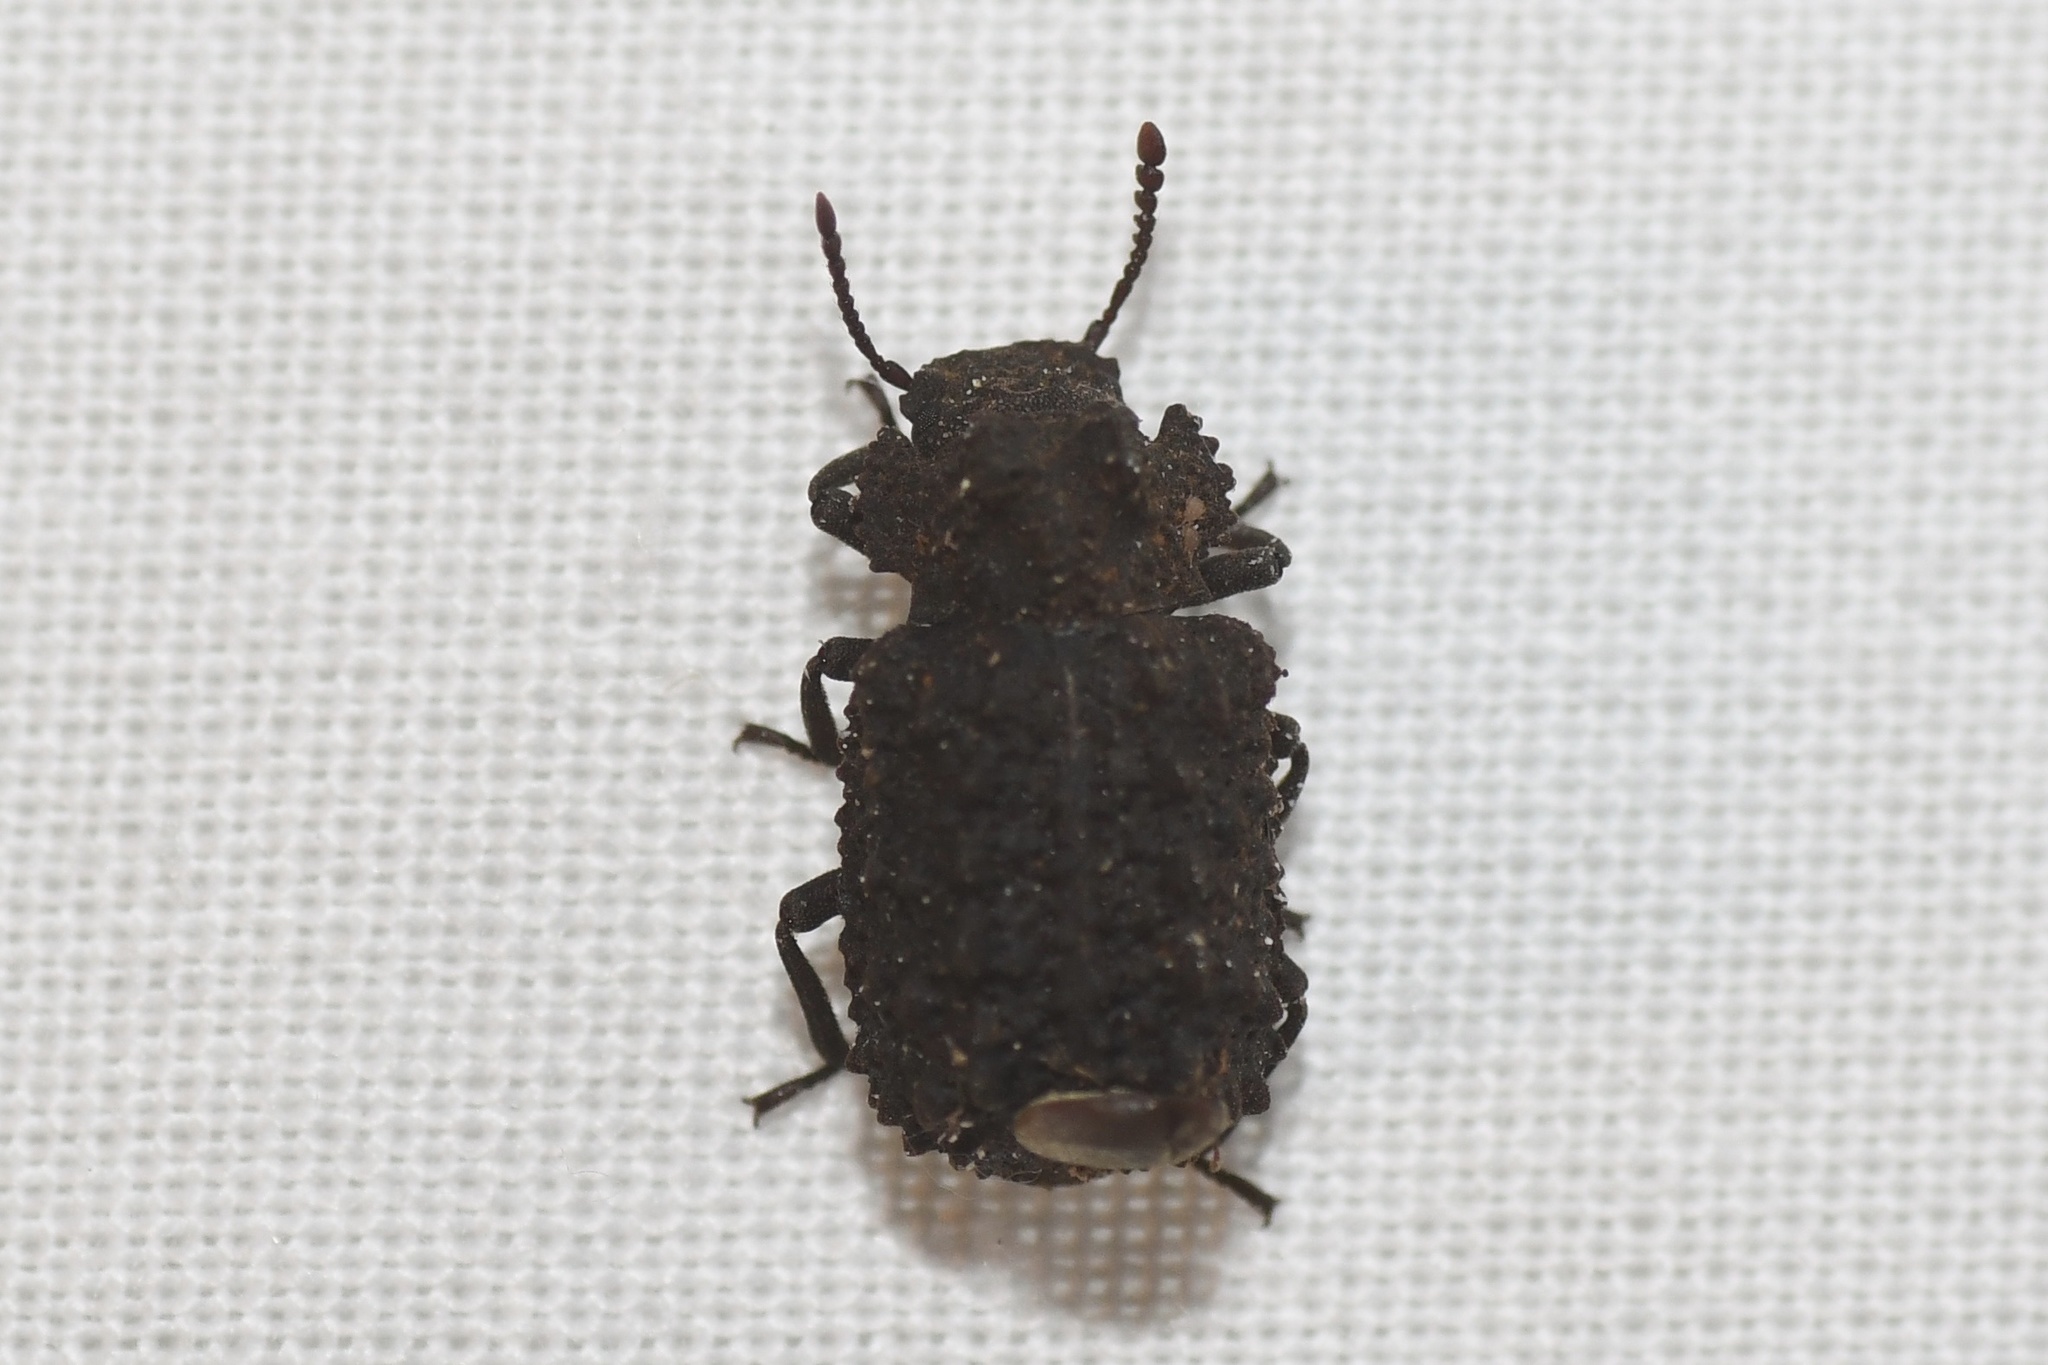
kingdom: Animalia
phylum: Arthropoda
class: Insecta
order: Coleoptera
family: Tenebrionidae
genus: Gnatocerus
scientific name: Gnatocerus cornutus
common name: Broad-horned flour beetle
